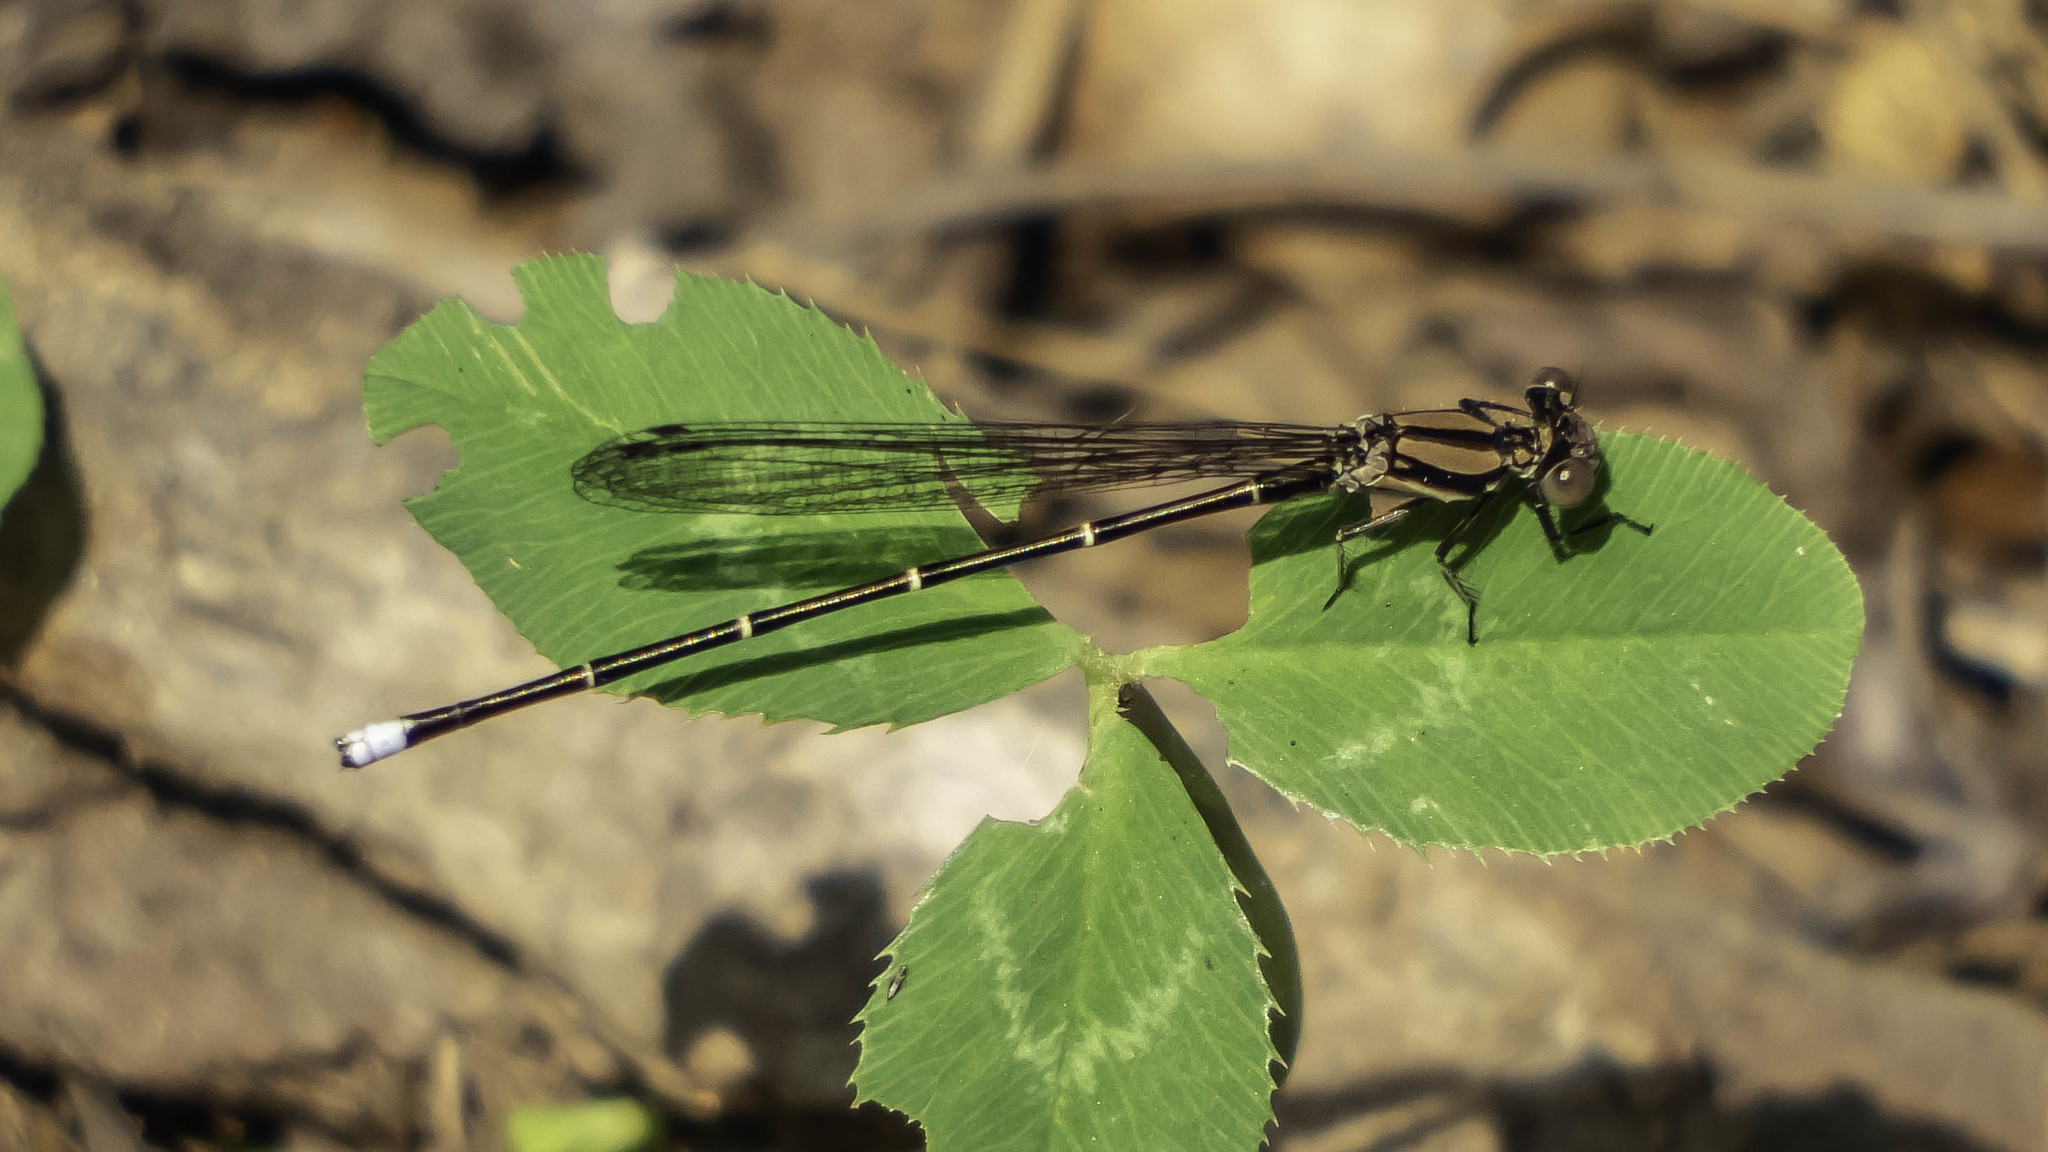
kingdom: Animalia
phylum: Arthropoda
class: Insecta
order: Odonata
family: Coenagrionidae
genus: Argia
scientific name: Argia tibialis
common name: Blue-tipped dancer
